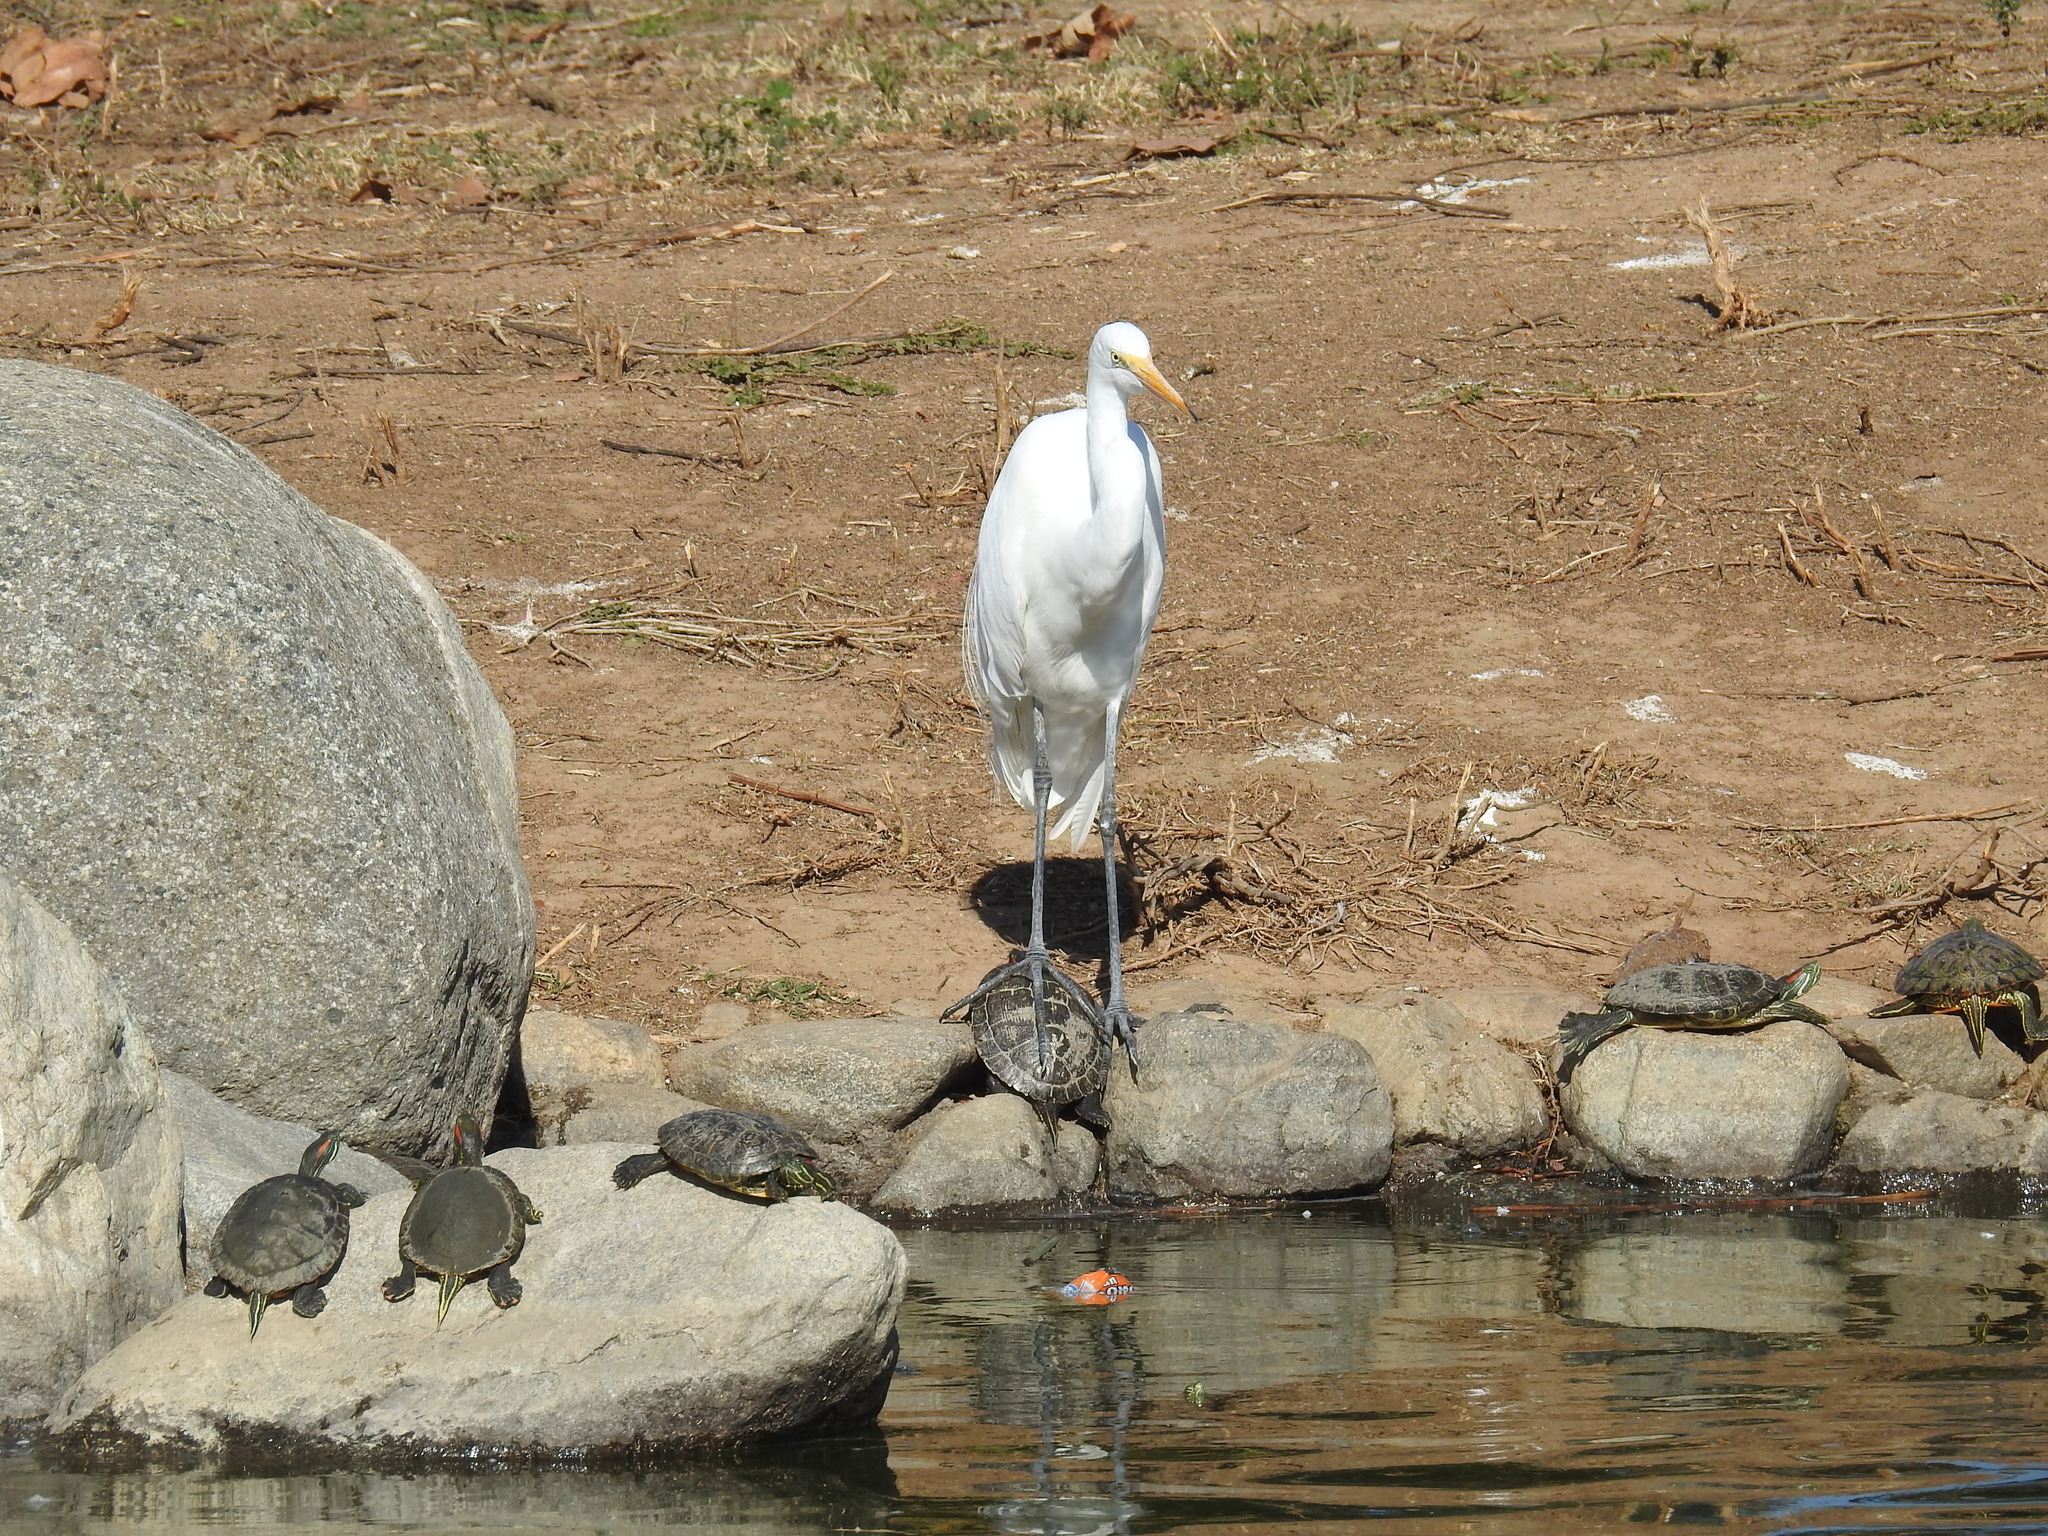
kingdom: Animalia
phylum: Chordata
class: Aves
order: Pelecaniformes
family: Ardeidae
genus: Ardea
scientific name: Ardea alba
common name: Great egret
